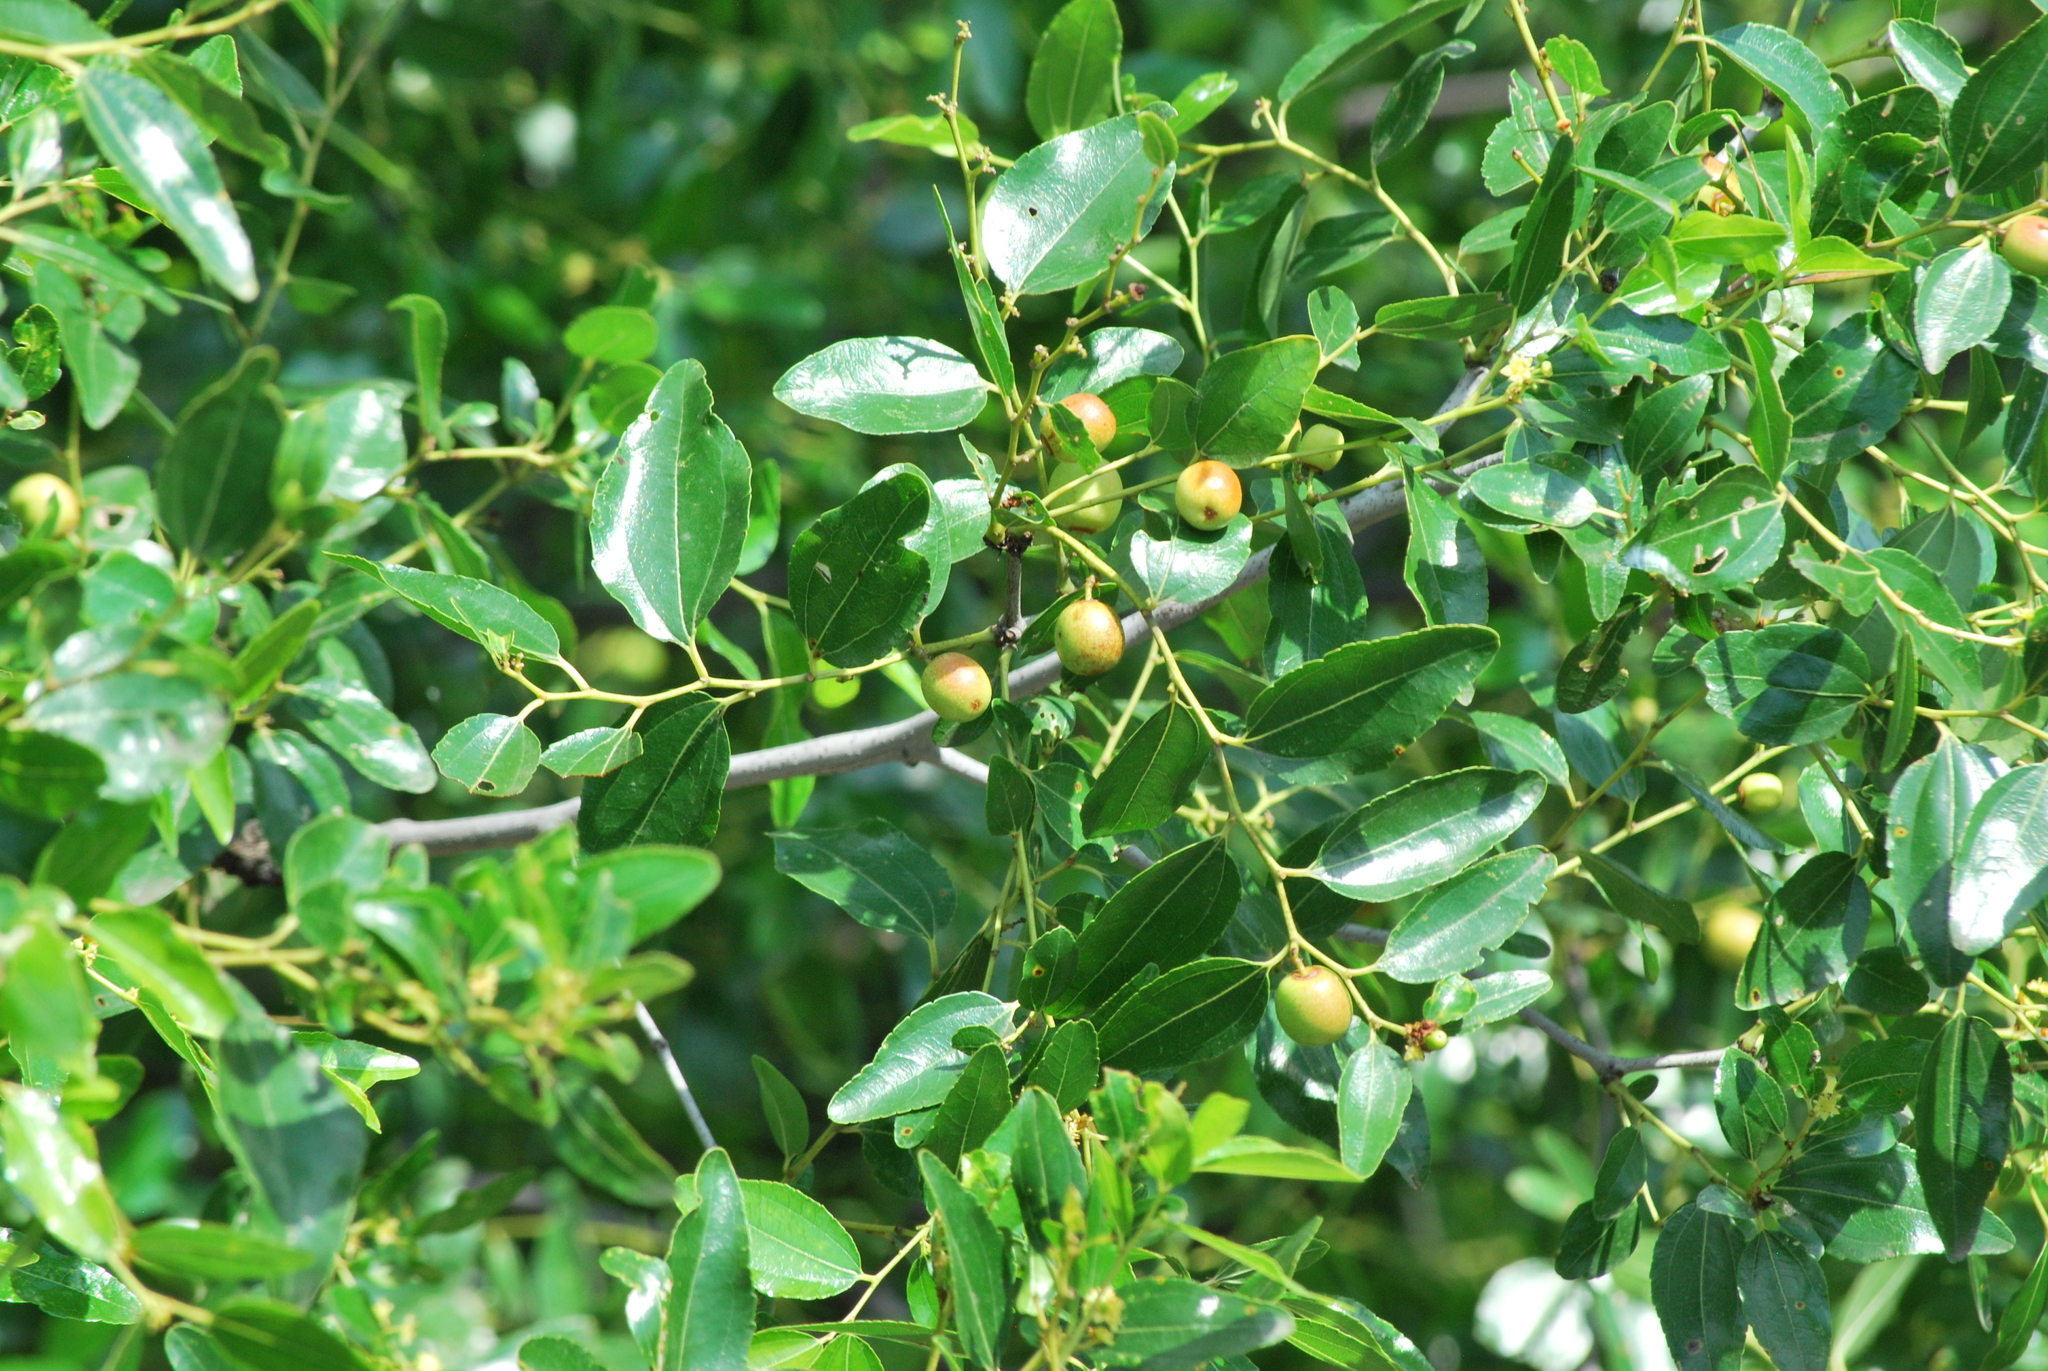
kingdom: Plantae
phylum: Tracheophyta
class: Magnoliopsida
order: Rosales
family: Rhamnaceae
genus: Ziziphus
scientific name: Ziziphus jujuba
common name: Jujube red date
